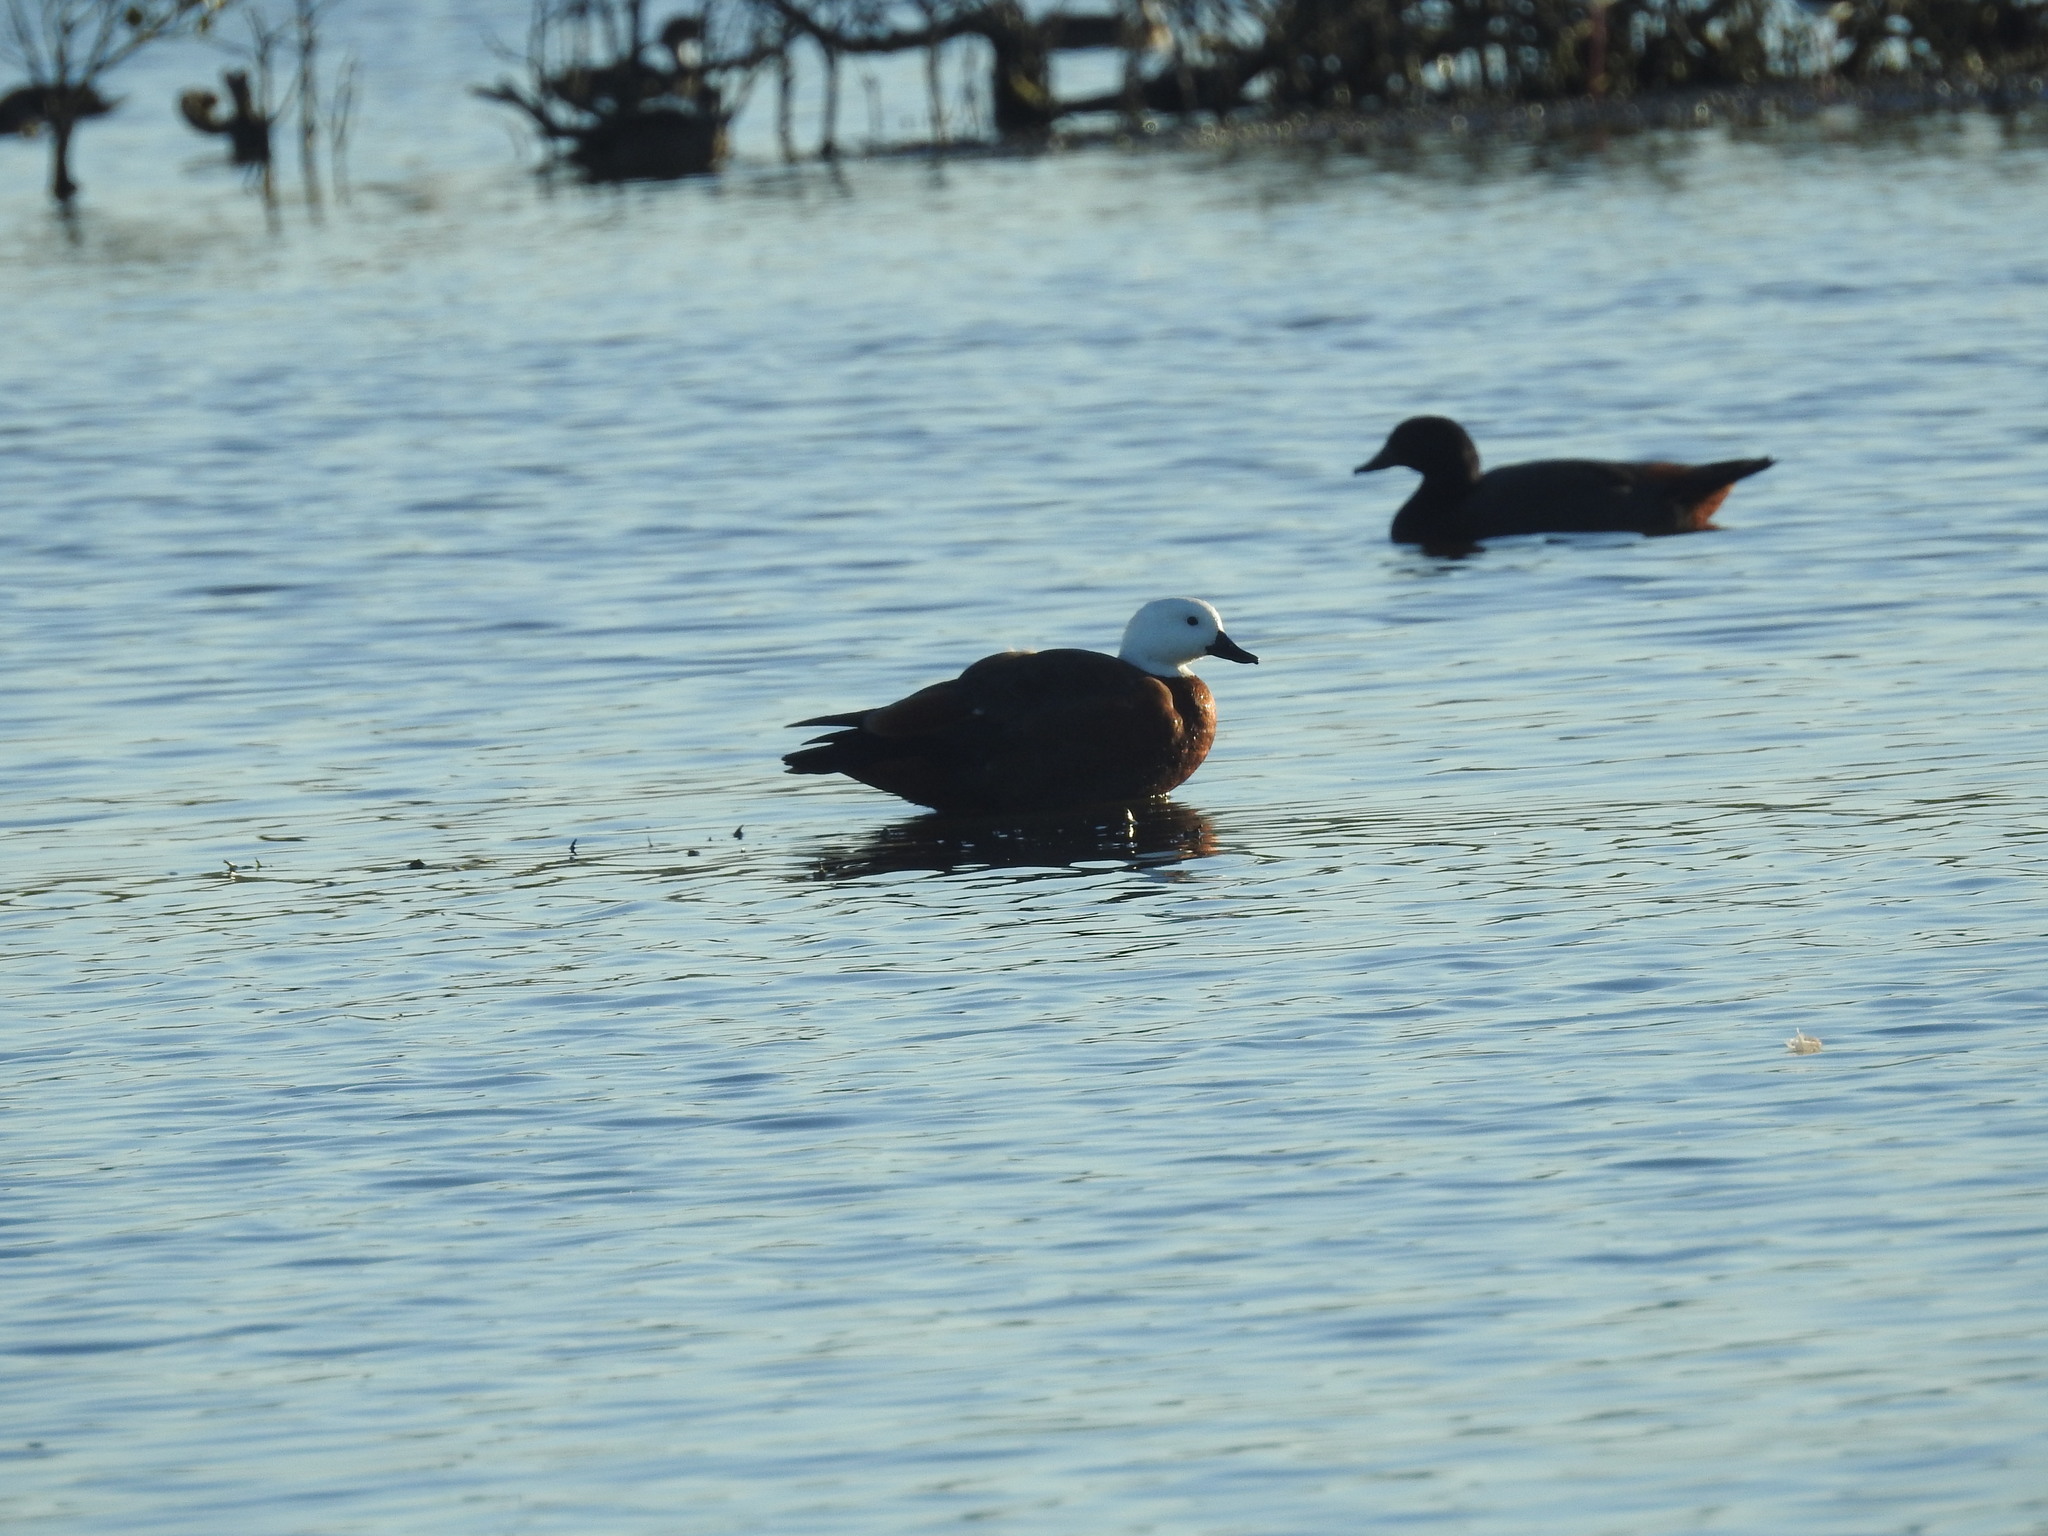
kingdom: Animalia
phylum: Chordata
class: Aves
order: Anseriformes
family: Anatidae
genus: Tadorna
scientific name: Tadorna variegata
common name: Paradise shelduck
